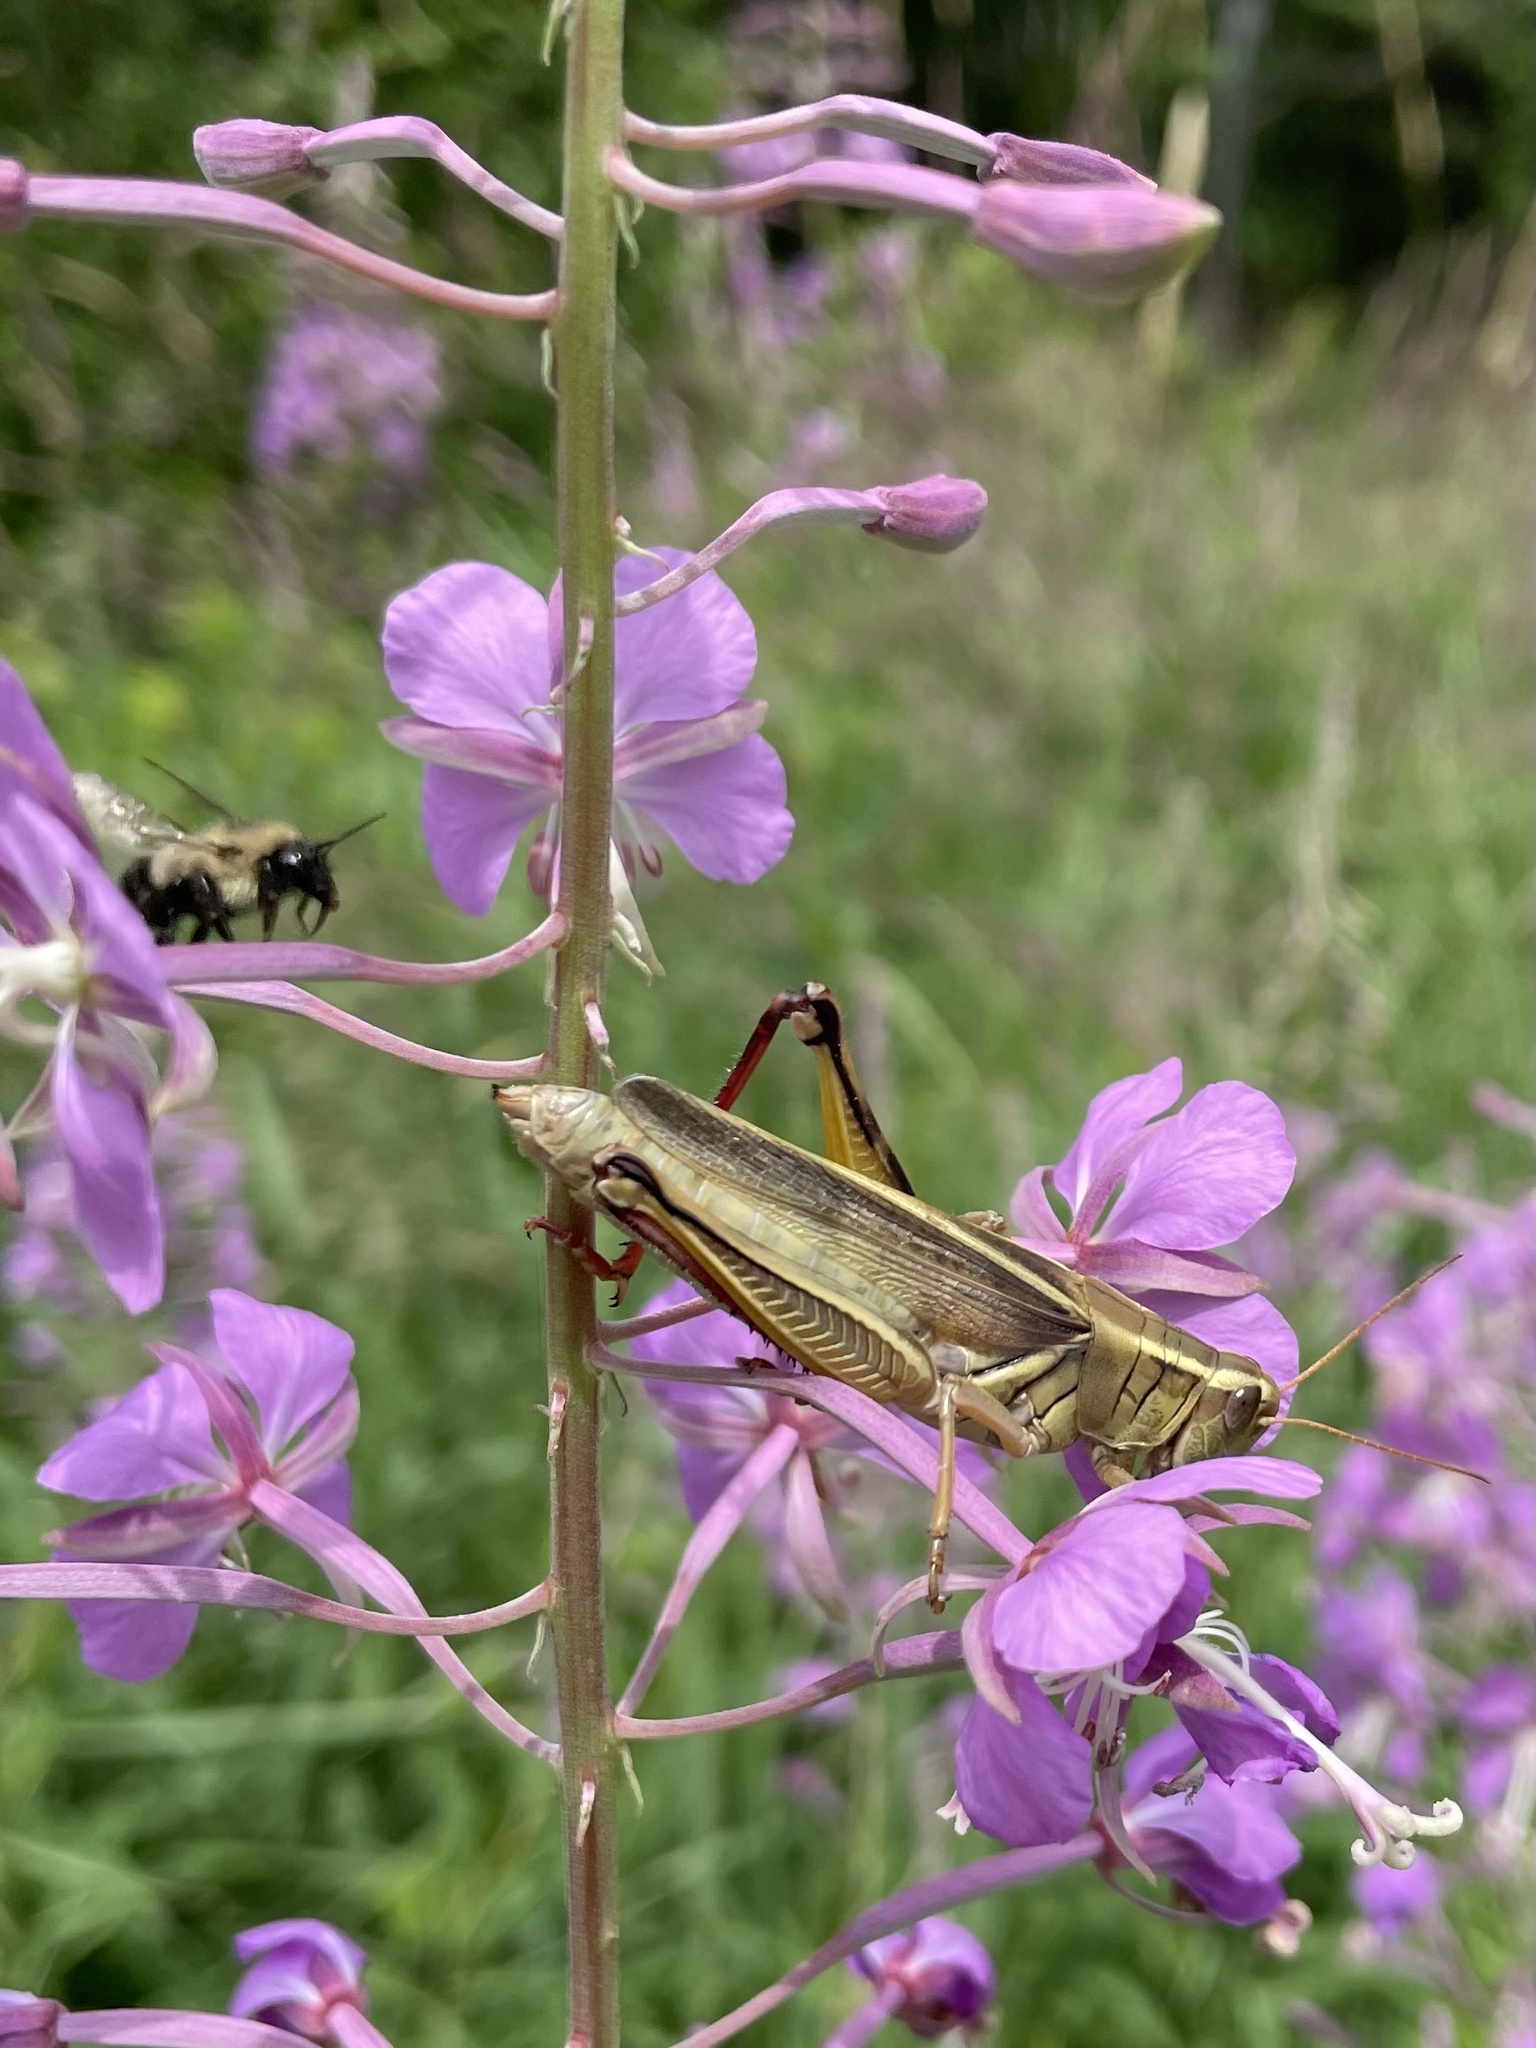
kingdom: Animalia
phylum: Arthropoda
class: Insecta
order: Orthoptera
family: Acrididae
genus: Melanoplus
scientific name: Melanoplus bivittatus
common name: Two-striped grasshopper
